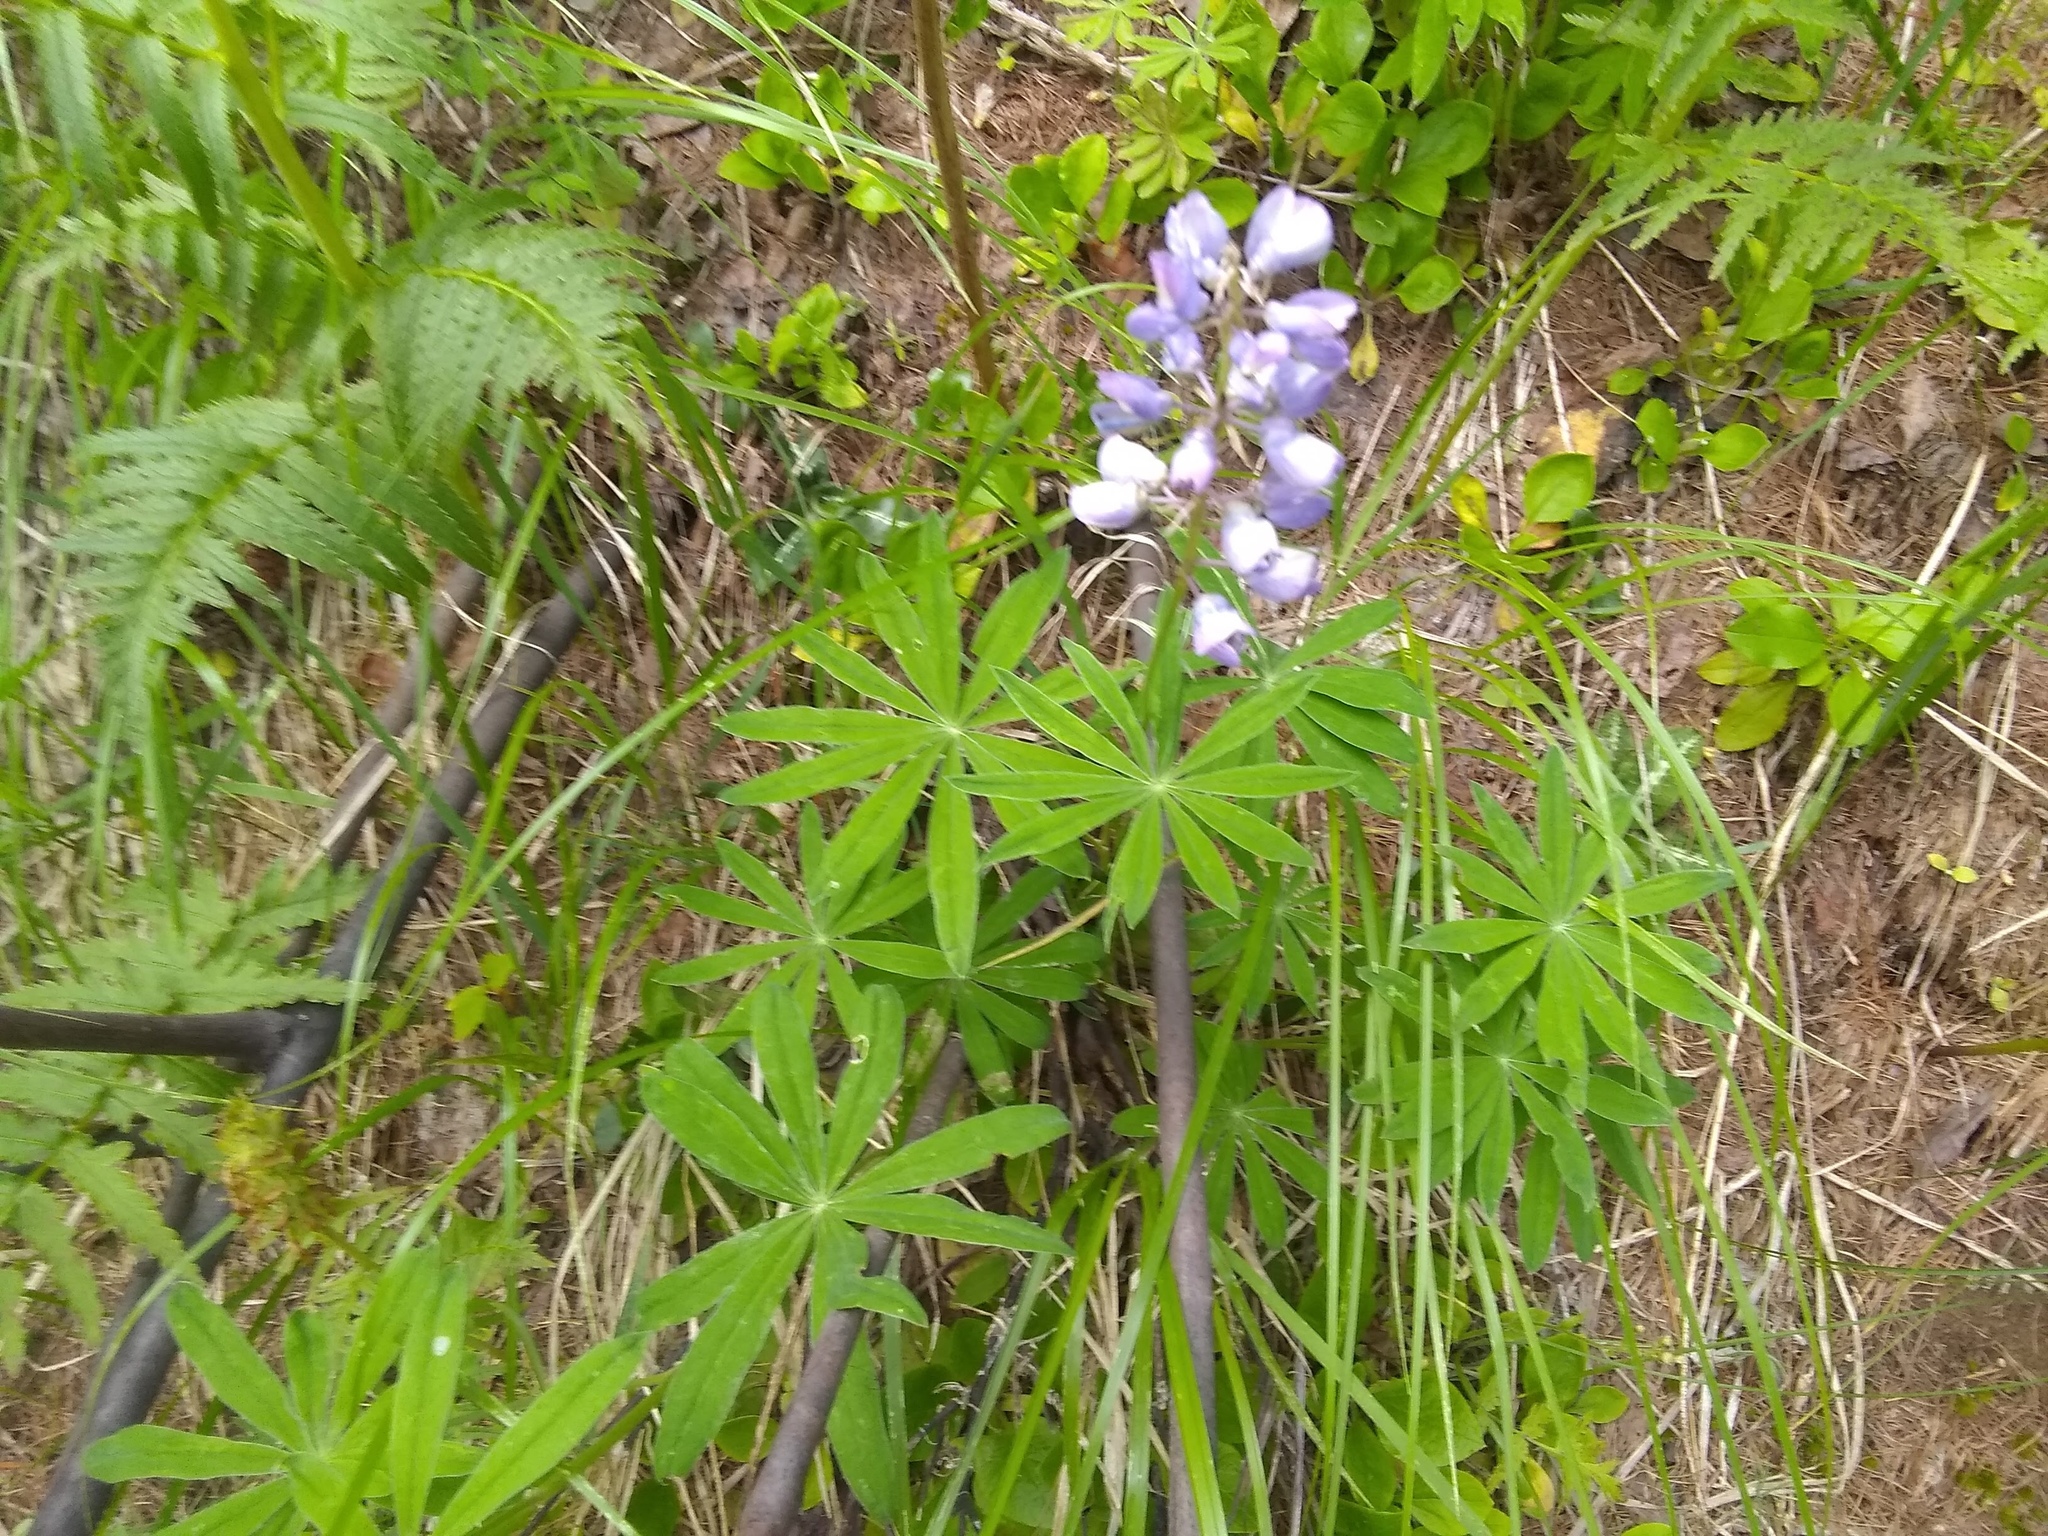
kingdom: Plantae
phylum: Tracheophyta
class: Magnoliopsida
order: Fabales
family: Fabaceae
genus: Lupinus
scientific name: Lupinus latifolius
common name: Broad-leaved lupine
